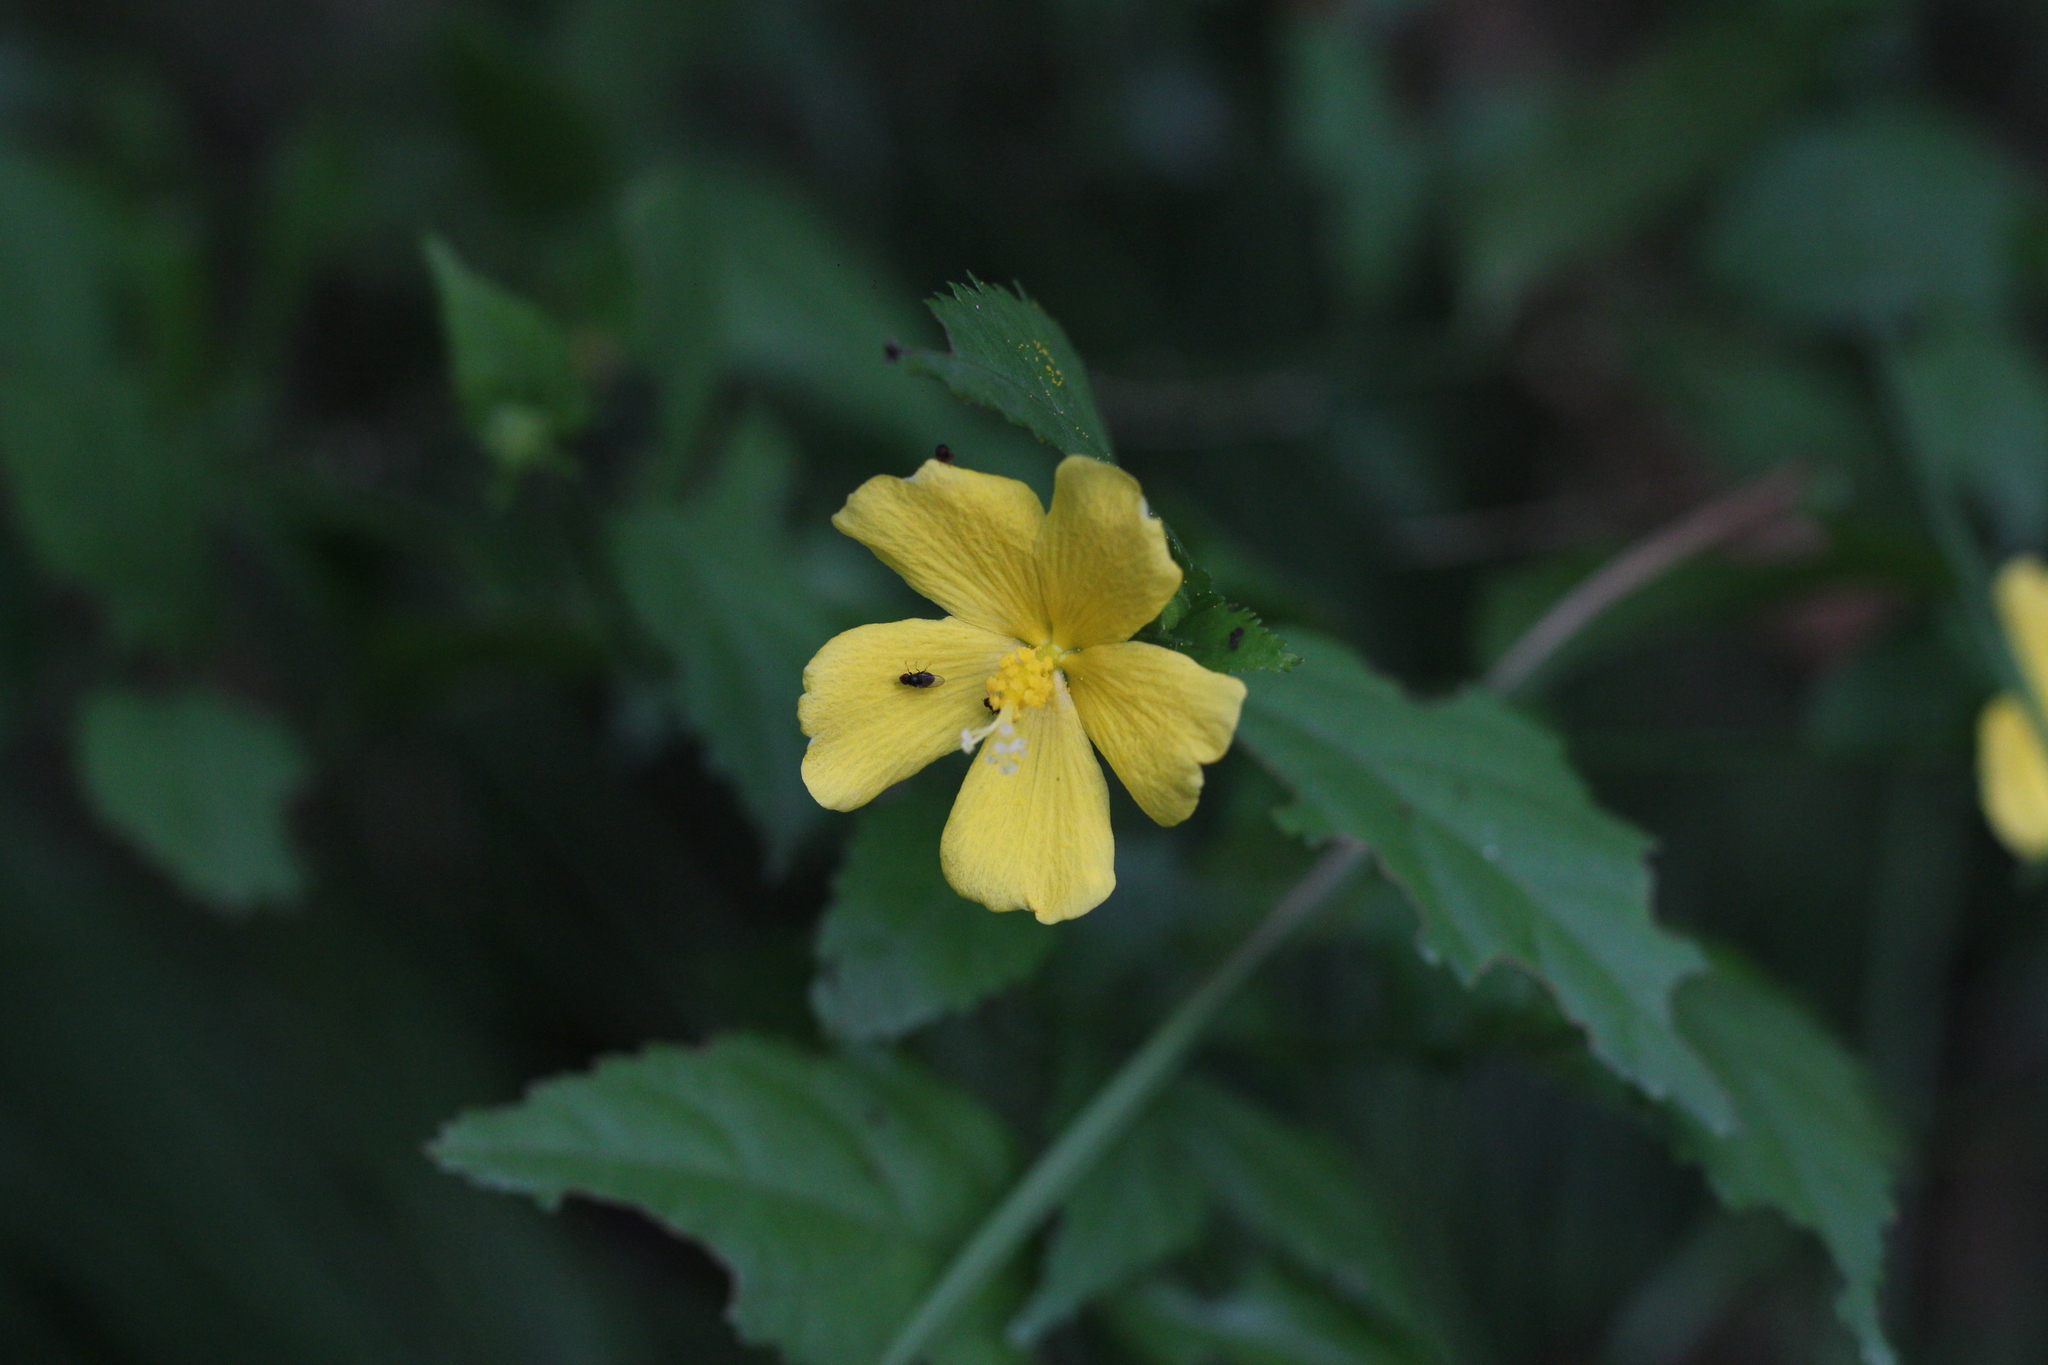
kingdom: Plantae
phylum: Tracheophyta
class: Magnoliopsida
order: Malvales
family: Malvaceae
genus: Pavonia
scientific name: Pavonia sepium
